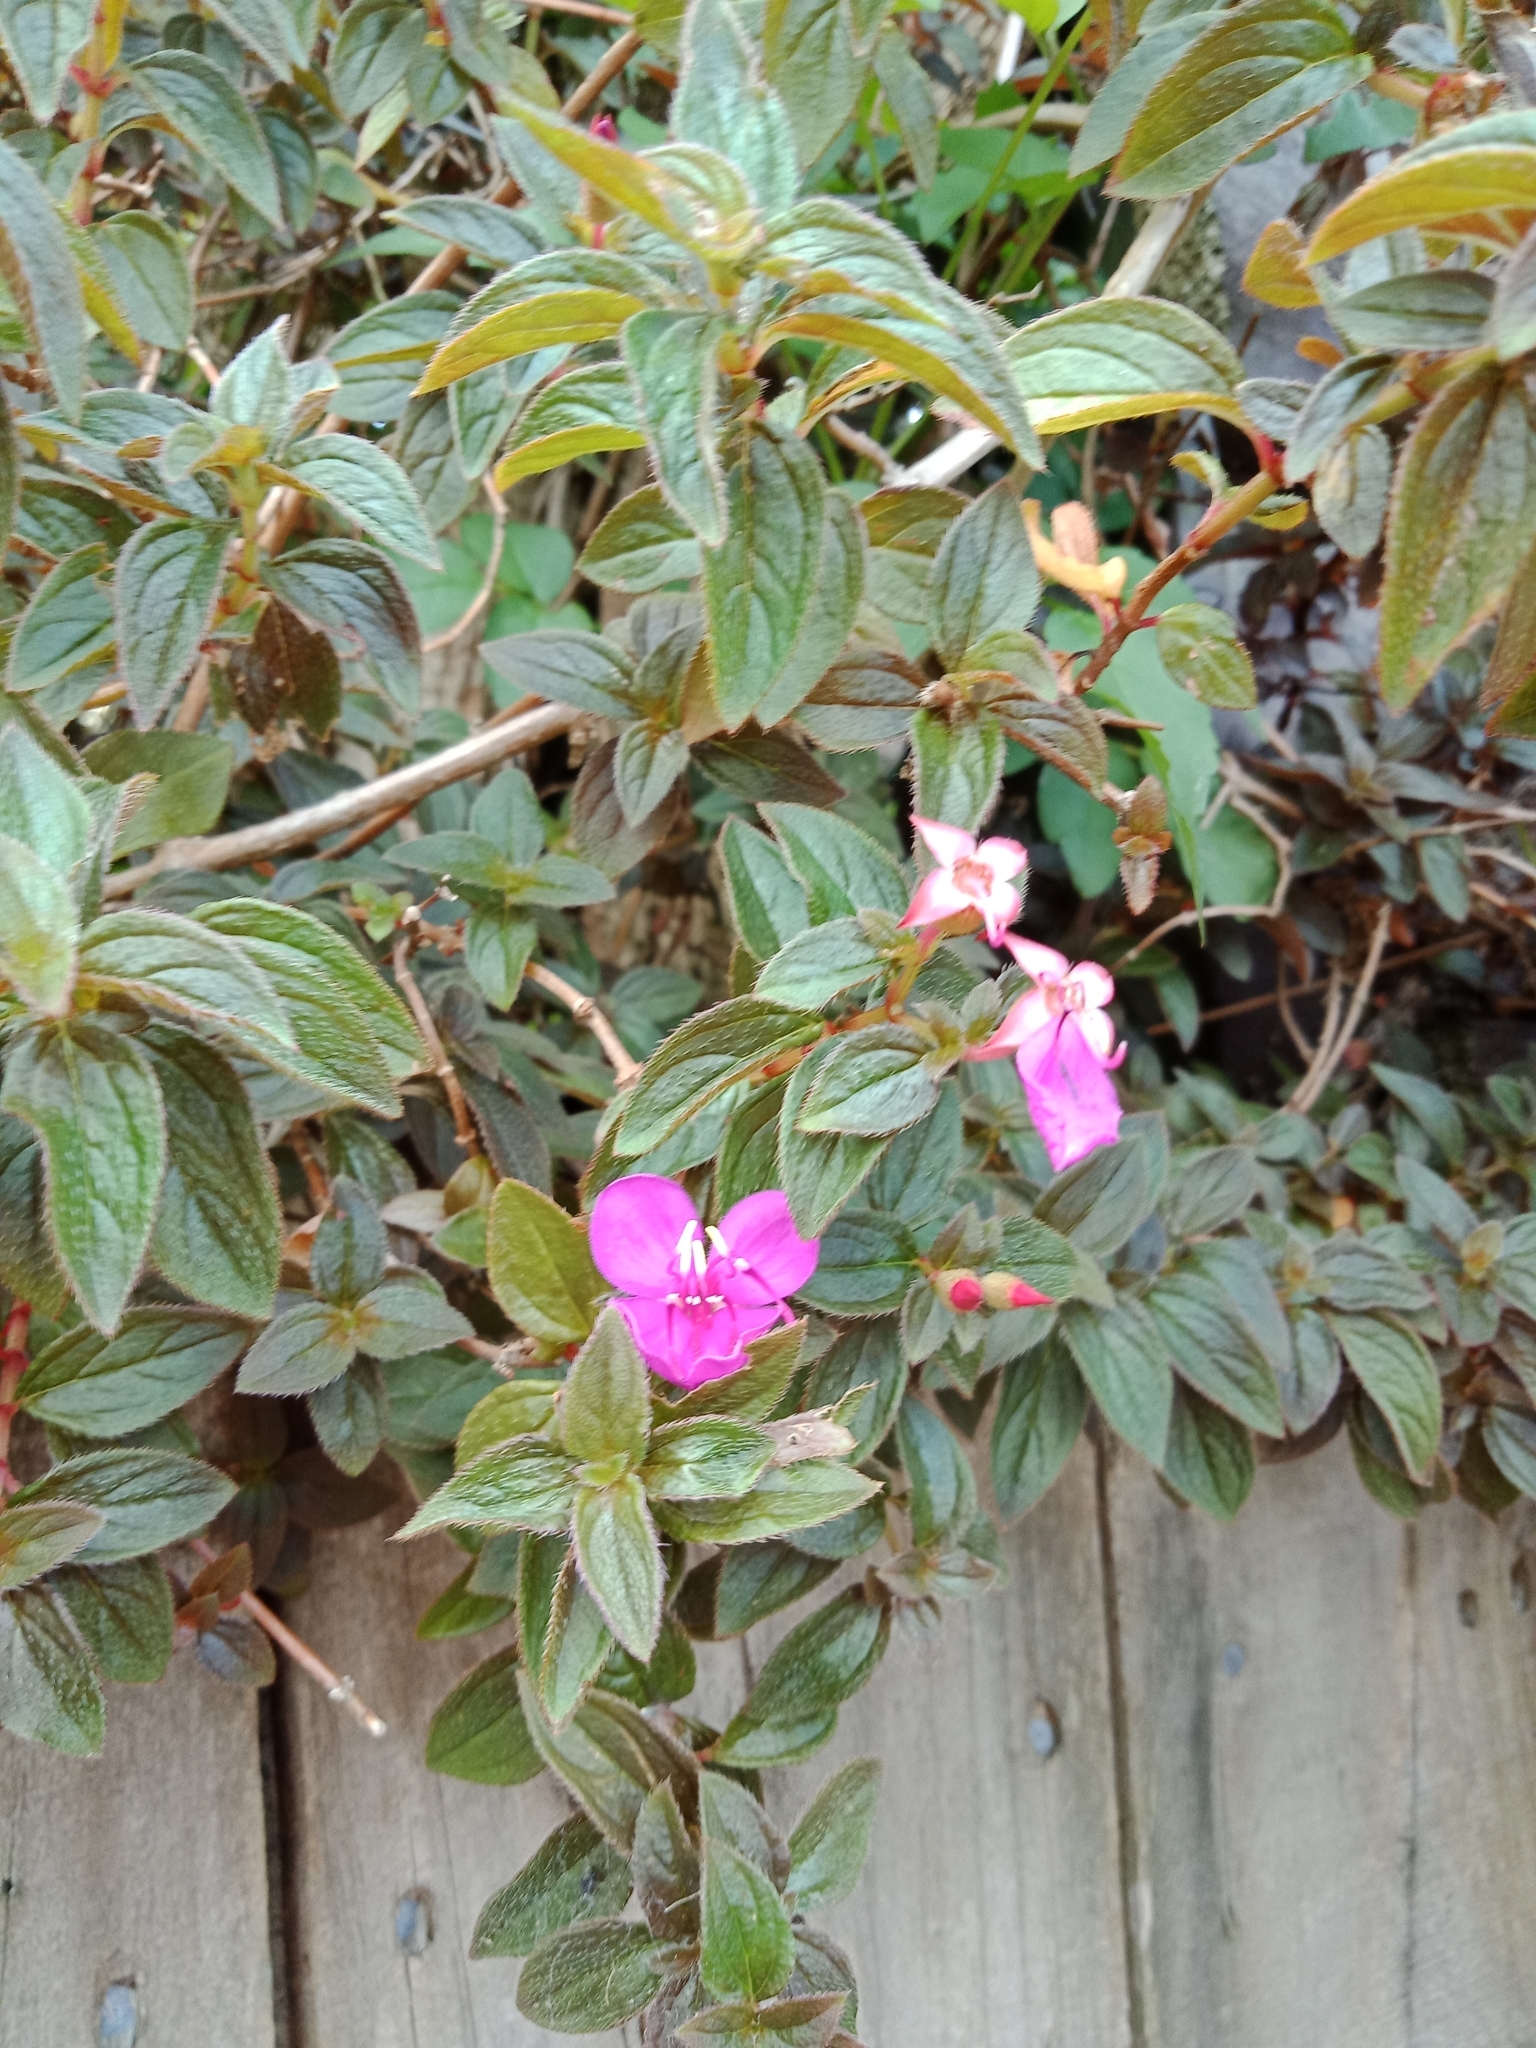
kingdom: Plantae
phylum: Tracheophyta
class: Magnoliopsida
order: Myrtales
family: Melastomataceae
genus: Heterocentron
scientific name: Heterocentron elegans
